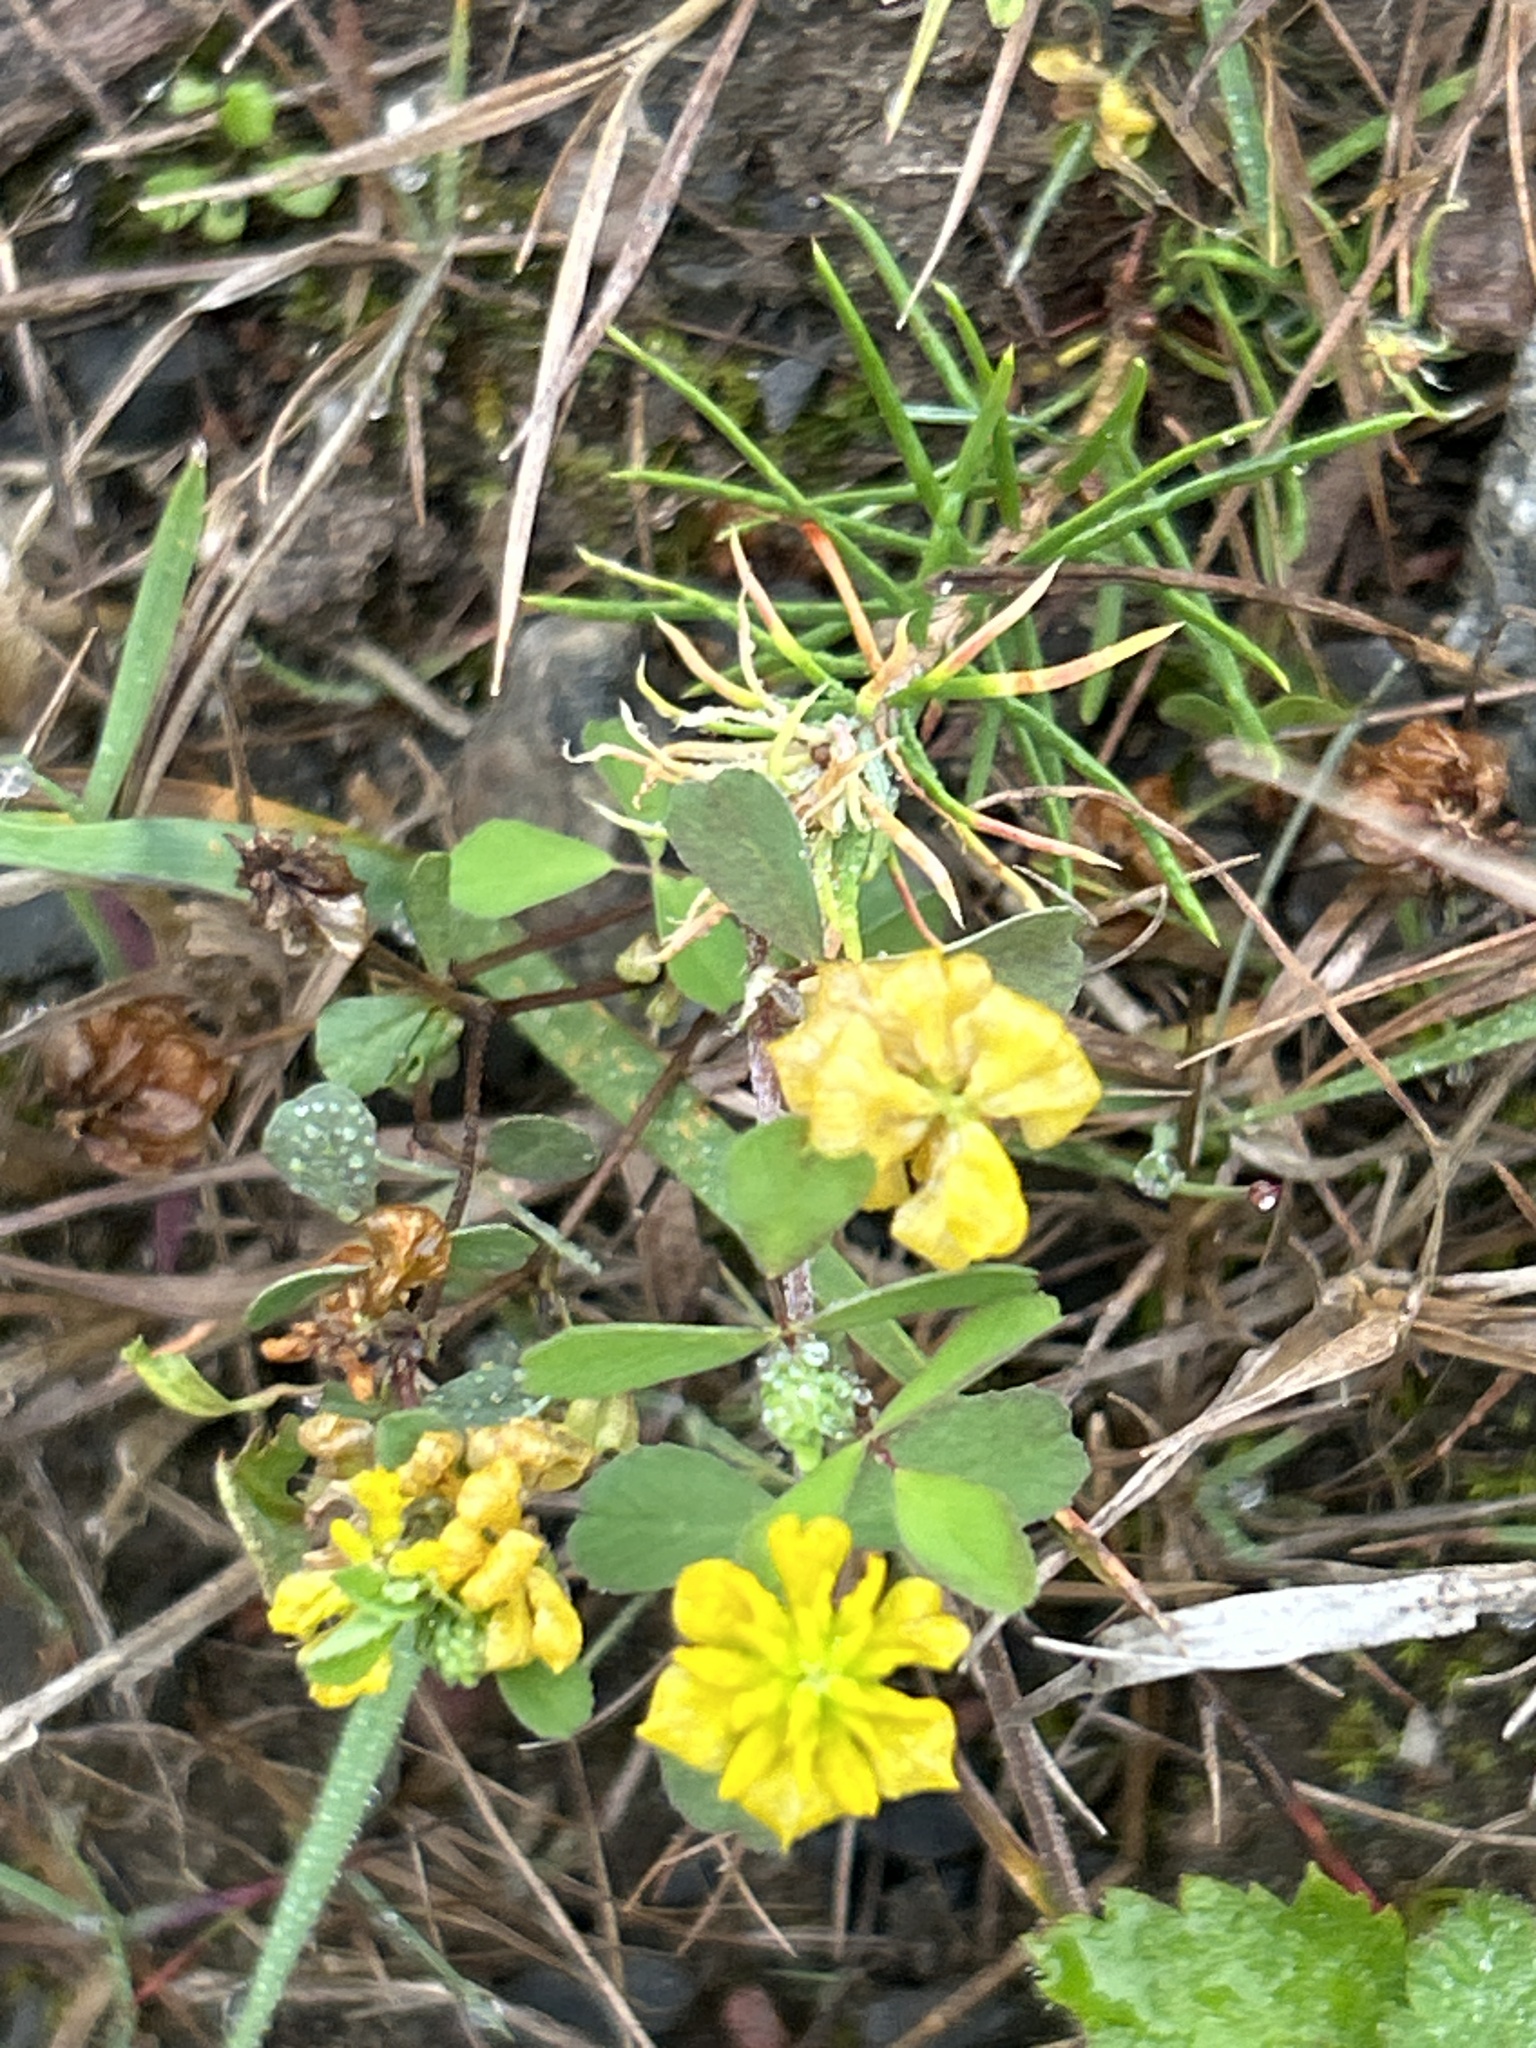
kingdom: Plantae
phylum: Tracheophyta
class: Magnoliopsida
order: Fabales
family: Fabaceae
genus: Trifolium
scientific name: Trifolium campestre
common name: Field clover
